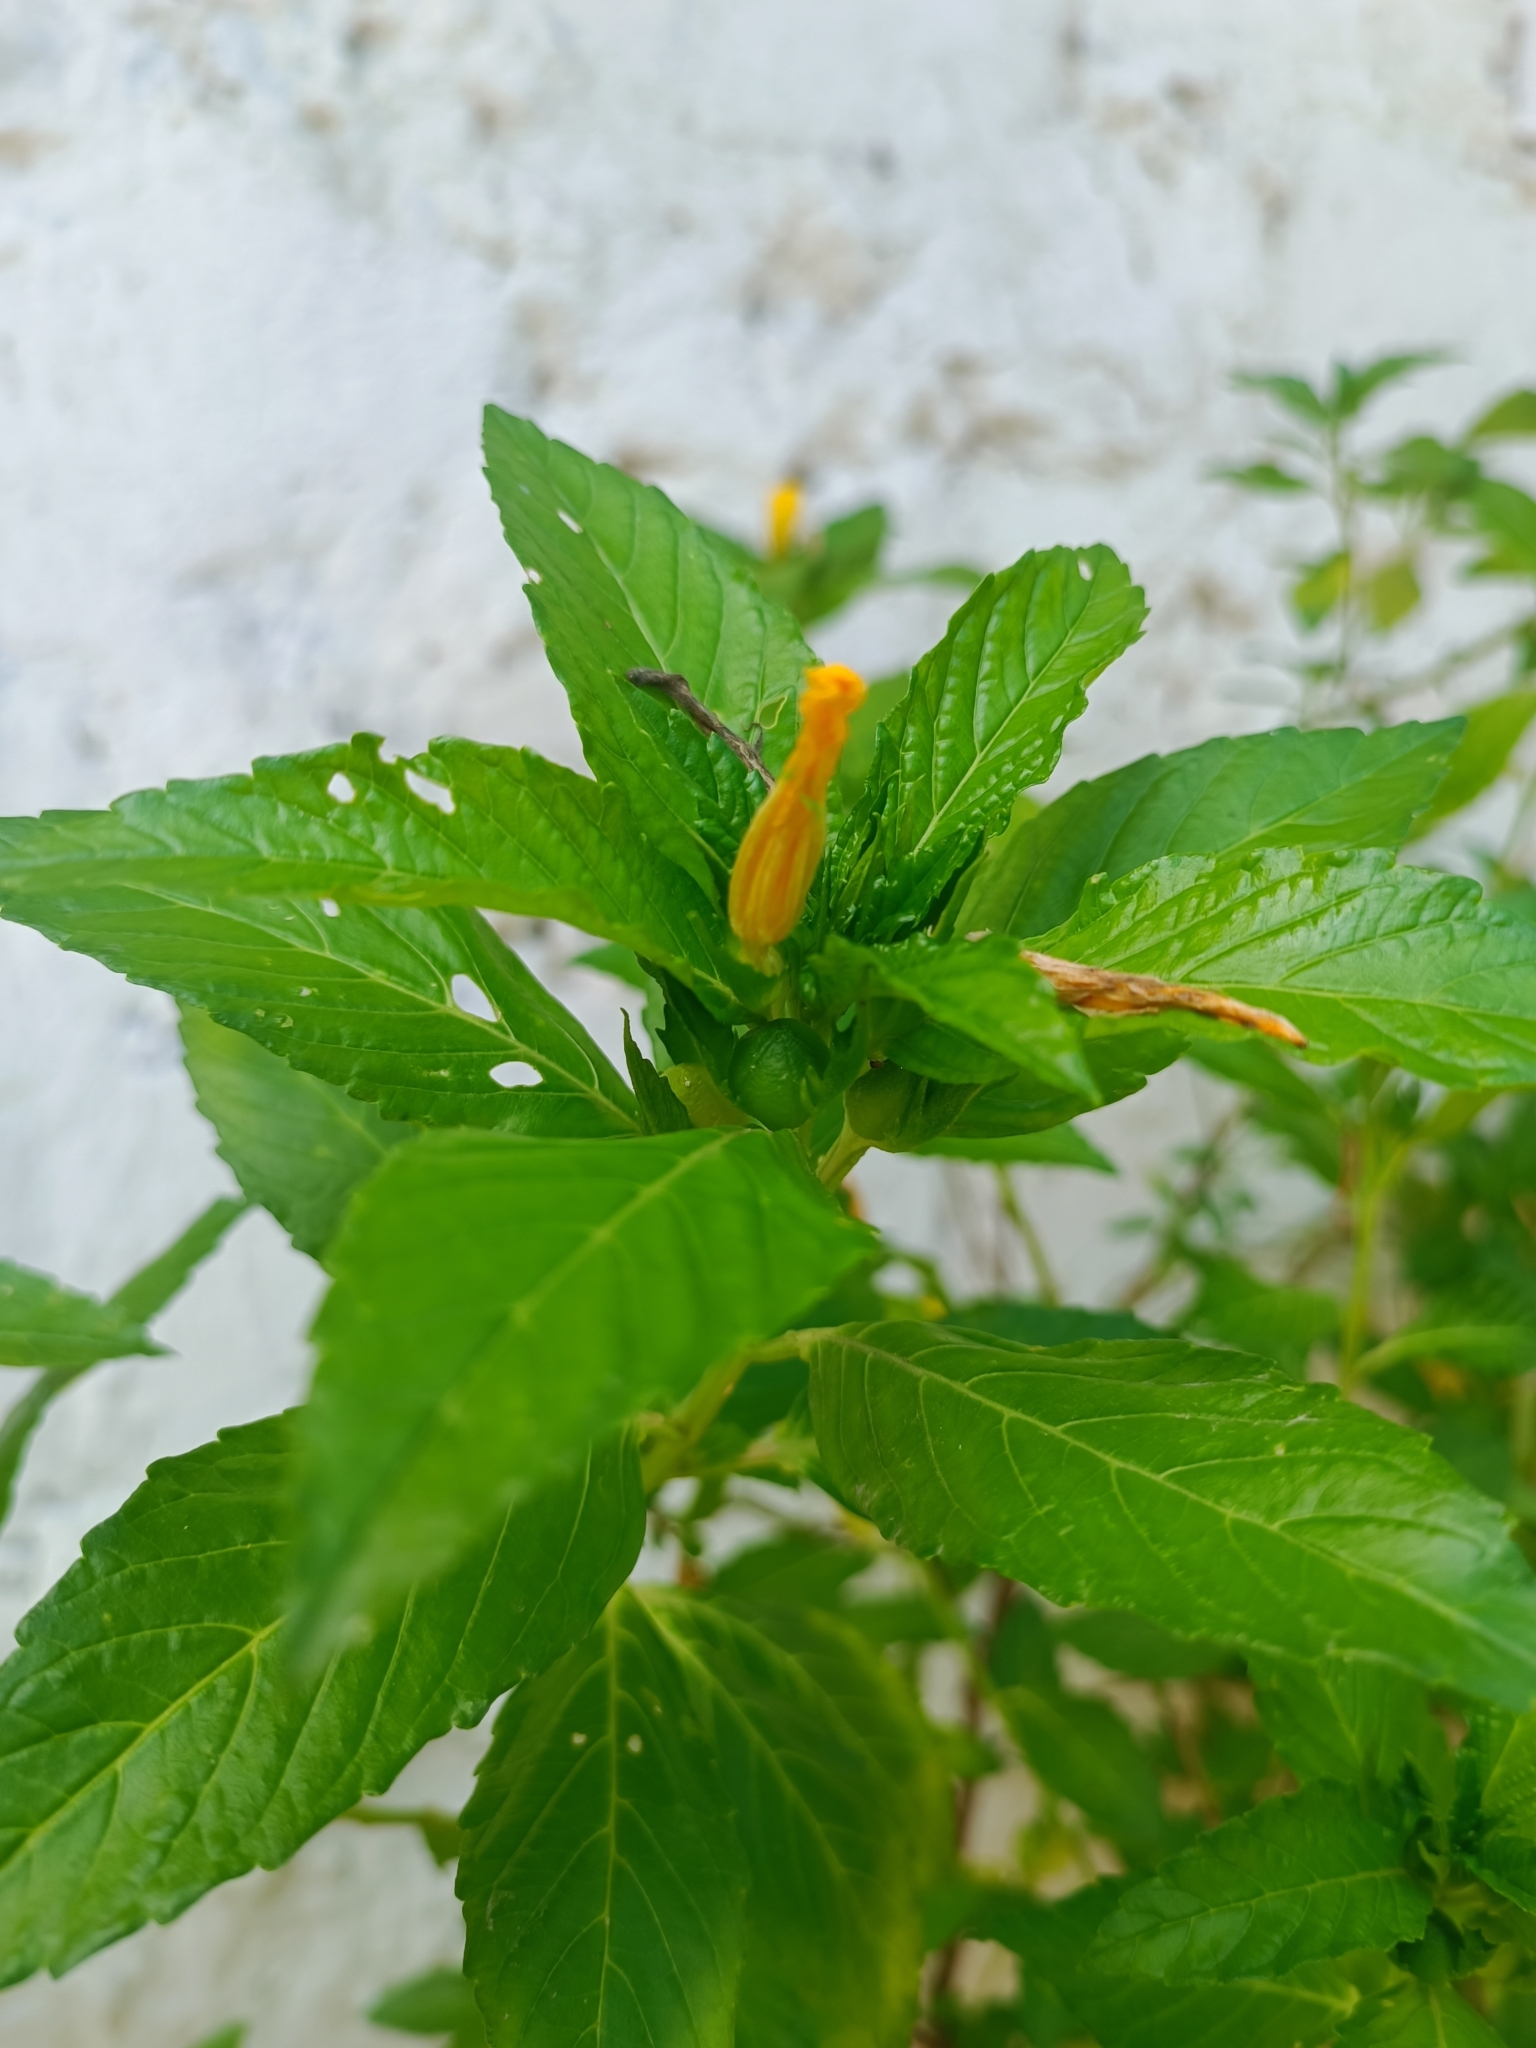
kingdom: Plantae
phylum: Tracheophyta
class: Magnoliopsida
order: Malpighiales
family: Turneraceae
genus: Turnera
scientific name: Turnera ulmifolia
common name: Ramgoat dashalong
